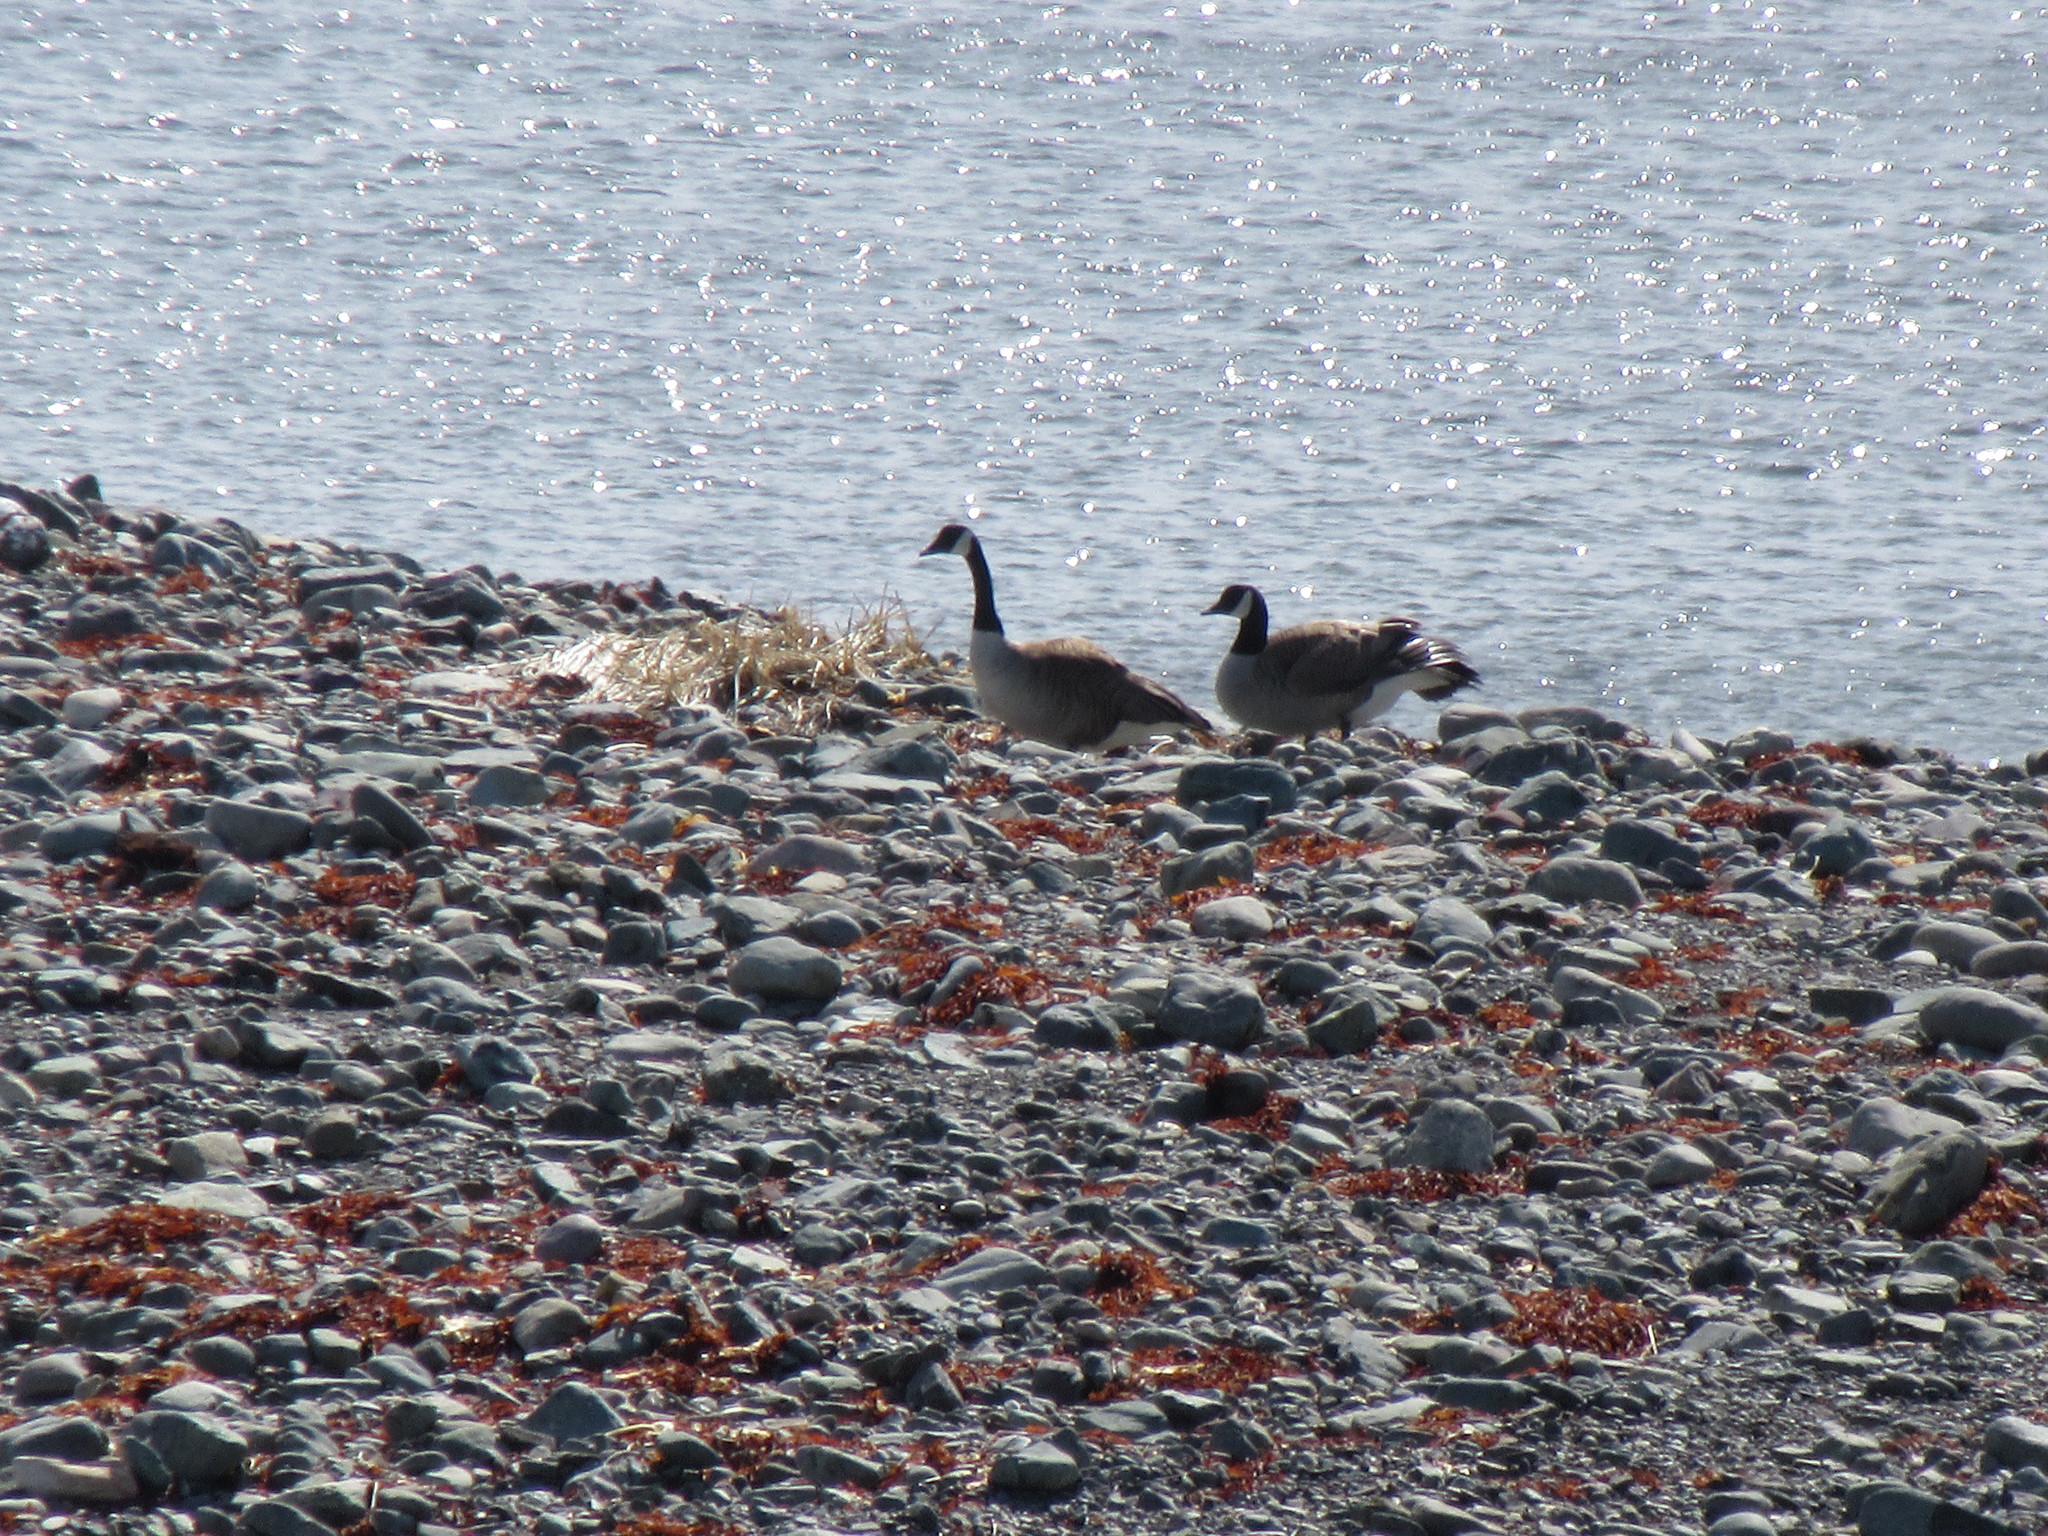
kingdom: Animalia
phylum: Chordata
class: Aves
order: Anseriformes
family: Anatidae
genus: Branta
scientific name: Branta canadensis
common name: Canada goose
